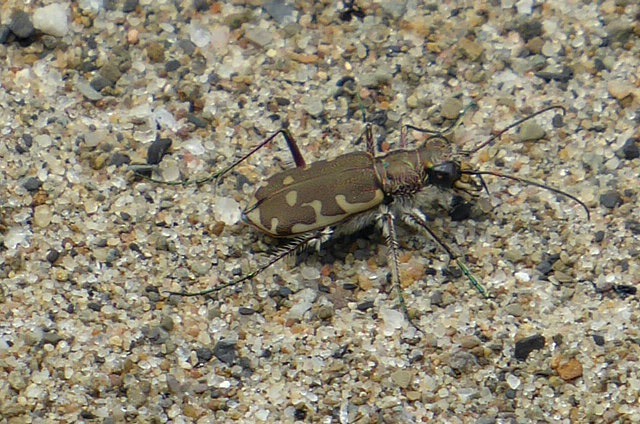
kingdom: Animalia
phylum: Arthropoda
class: Insecta
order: Coleoptera
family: Carabidae
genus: Cicindela
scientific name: Cicindela repanda
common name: Bronzed tiger beetle
